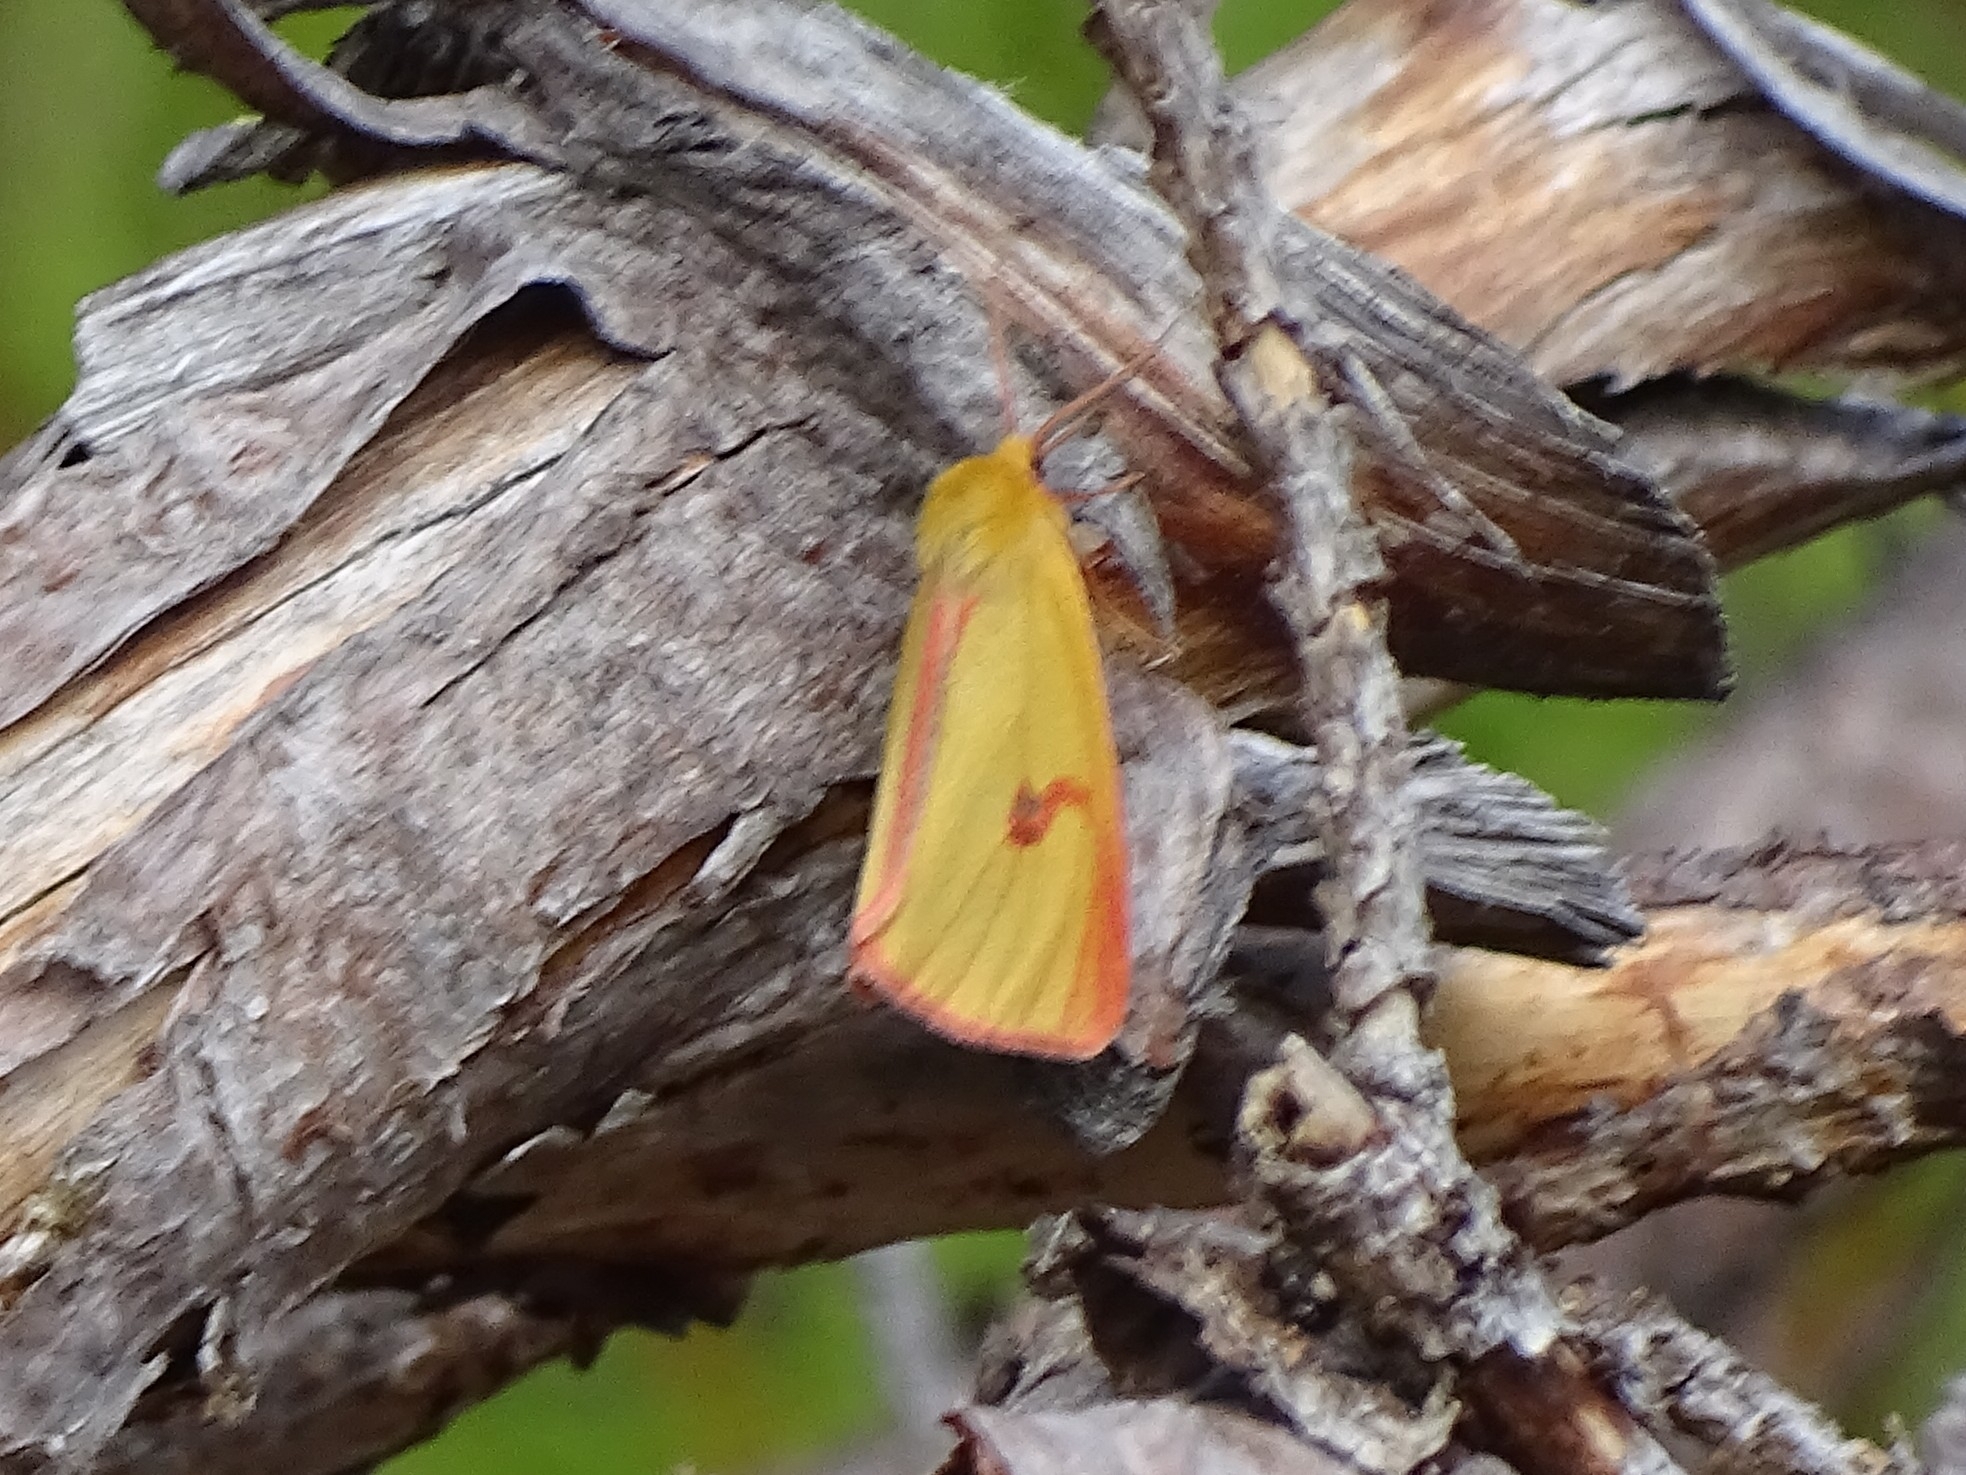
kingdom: Animalia
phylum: Arthropoda
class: Insecta
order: Lepidoptera
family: Erebidae
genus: Diacrisia
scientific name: Diacrisia sannio
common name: Clouded buff
